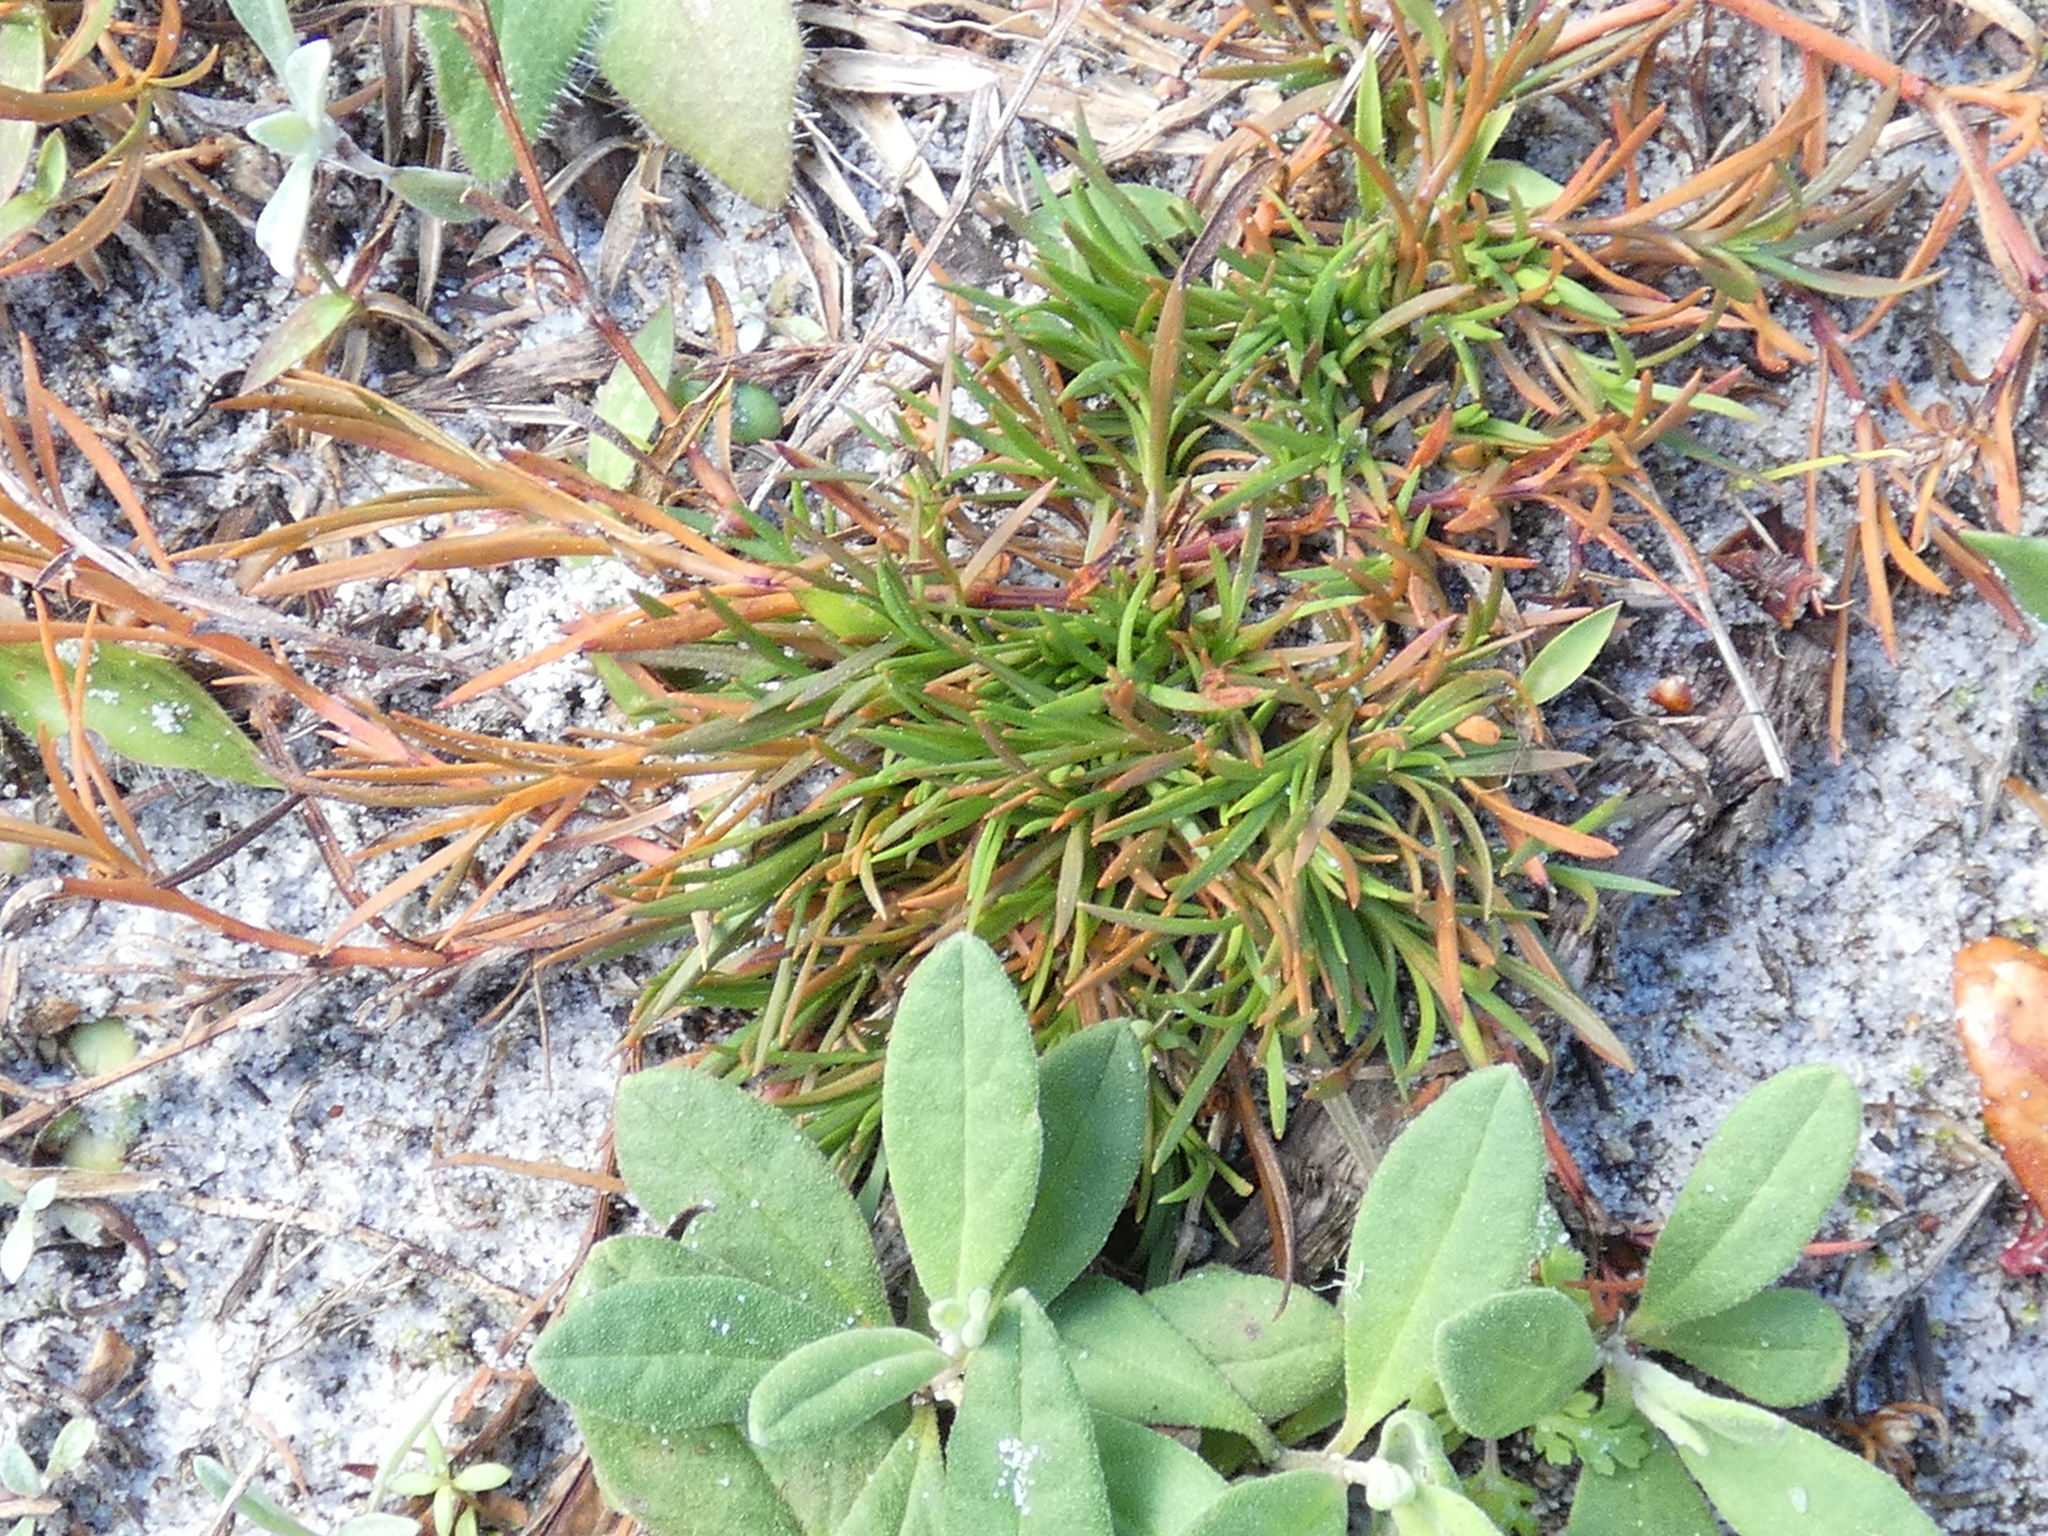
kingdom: Plantae
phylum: Tracheophyta
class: Magnoliopsida
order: Lamiales
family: Tetrachondraceae
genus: Polypremum
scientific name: Polypremum procumbens
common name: Juniper-leaf
